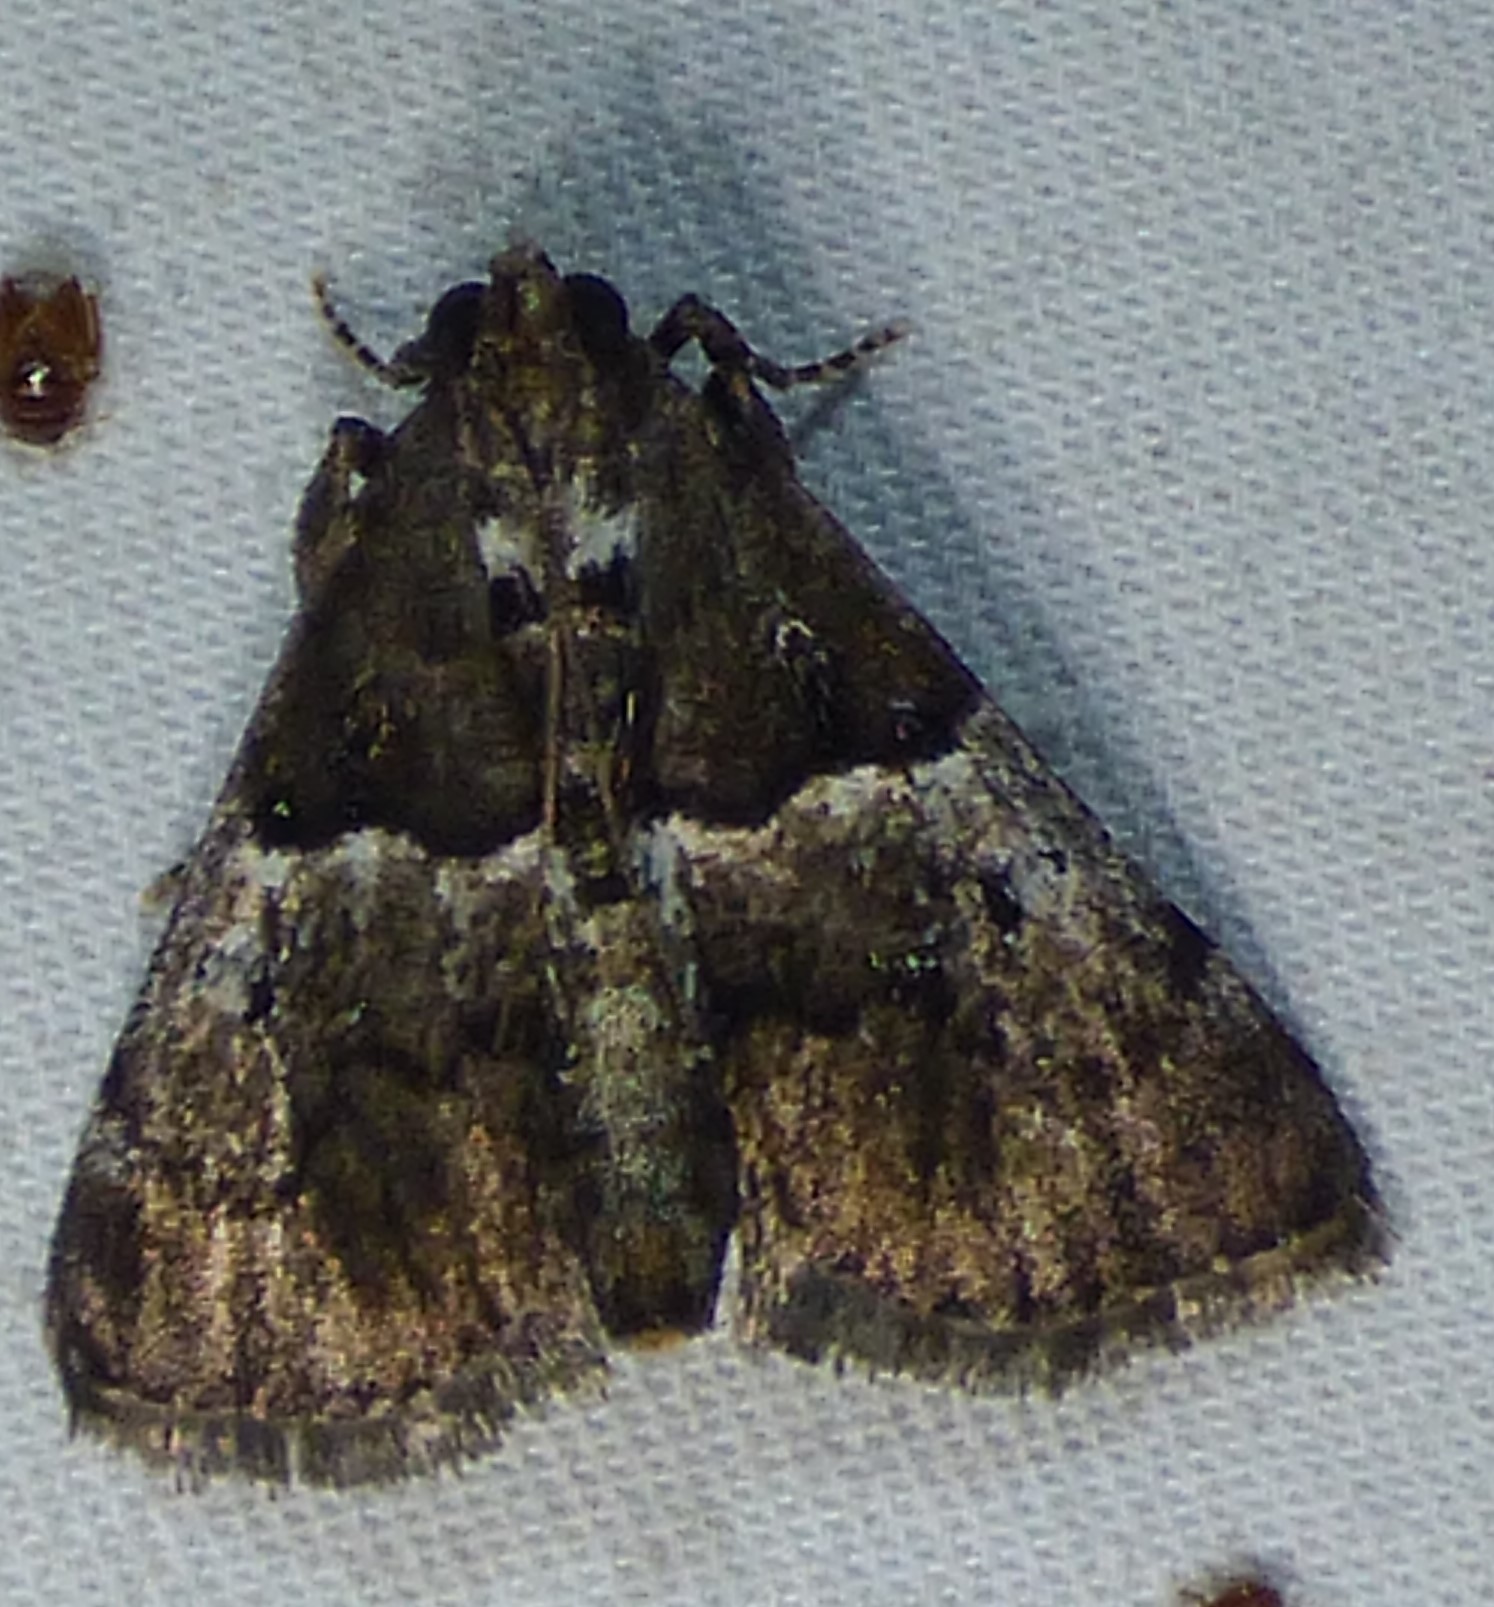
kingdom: Animalia
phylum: Arthropoda
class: Insecta
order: Lepidoptera
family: Pyralidae
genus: Macalla
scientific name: Macalla zelleri
